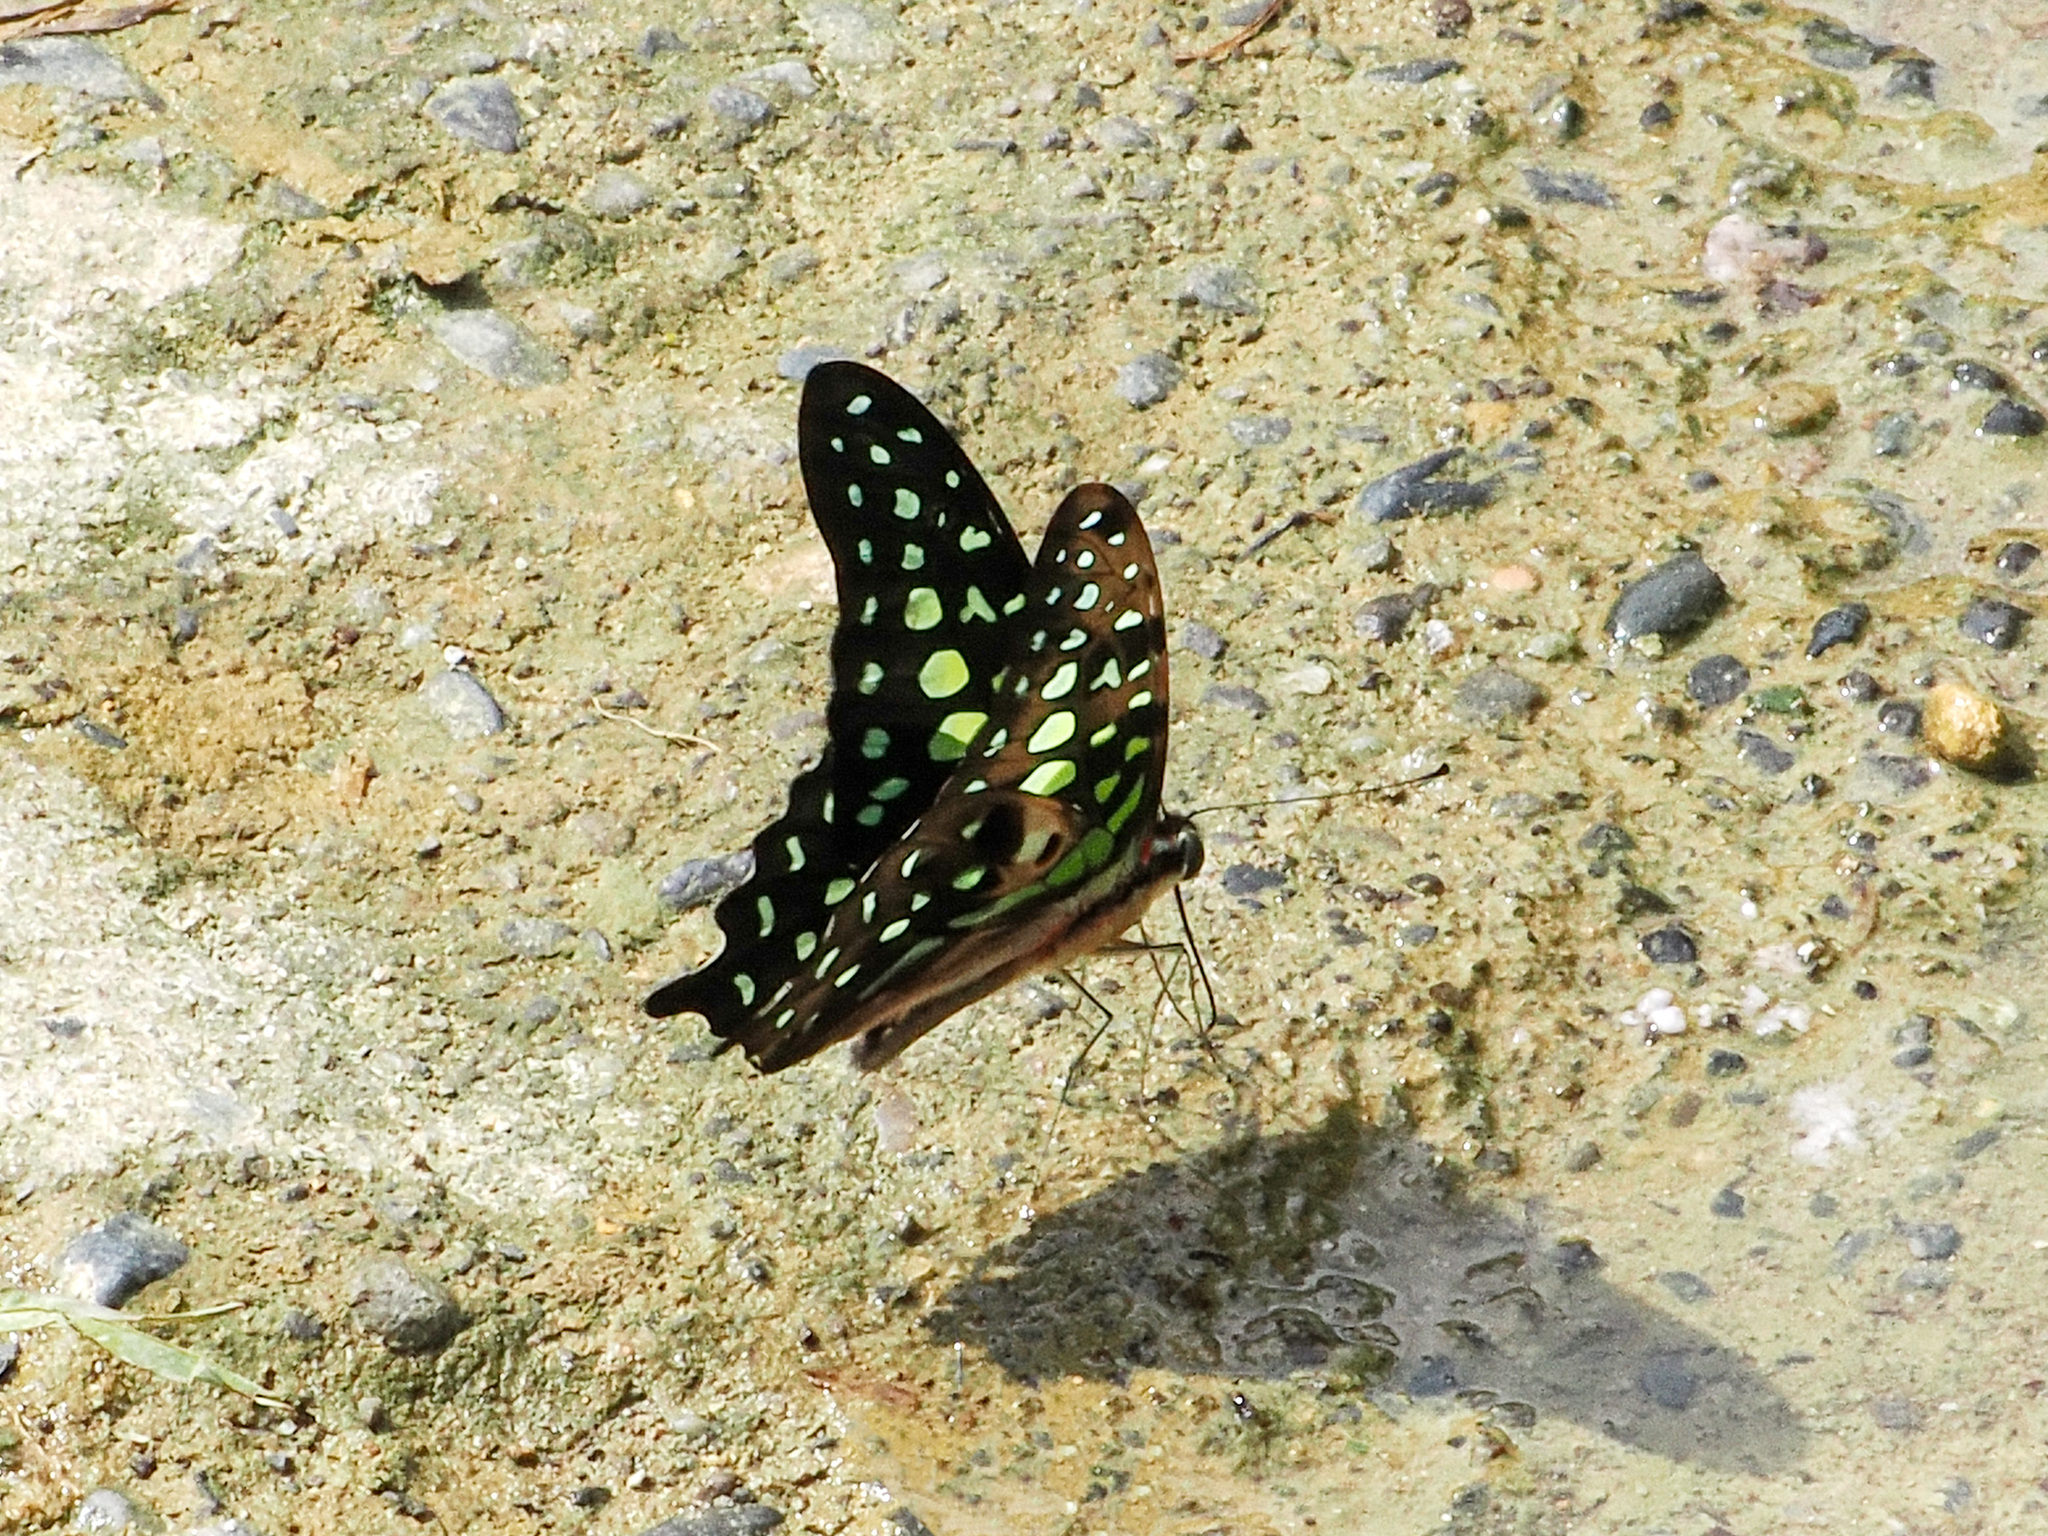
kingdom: Animalia
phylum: Arthropoda
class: Insecta
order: Lepidoptera
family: Papilionidae
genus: Graphium
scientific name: Graphium agamemnon
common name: Tailed jay
